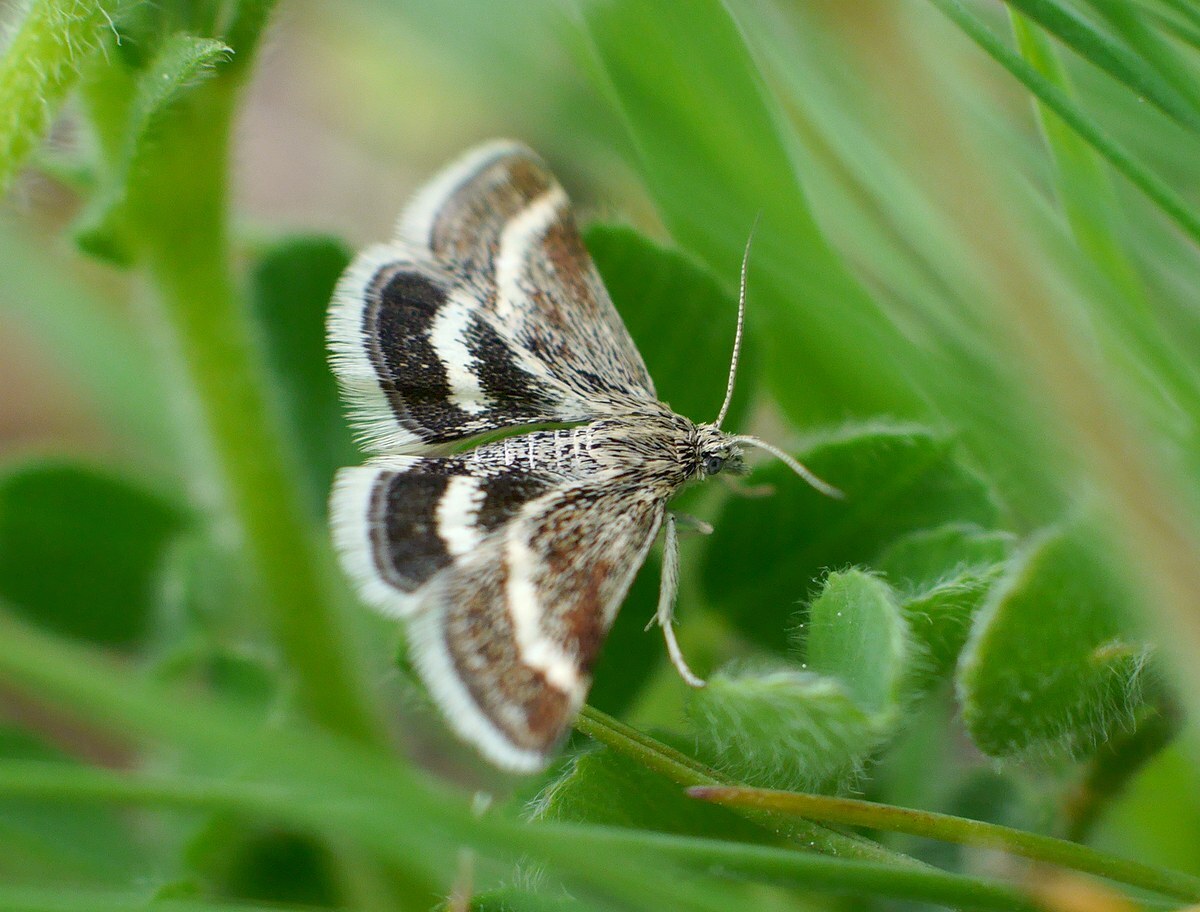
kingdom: Animalia
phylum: Arthropoda
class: Insecta
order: Lepidoptera
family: Crambidae
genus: Atralata
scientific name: Atralata albofascialis
